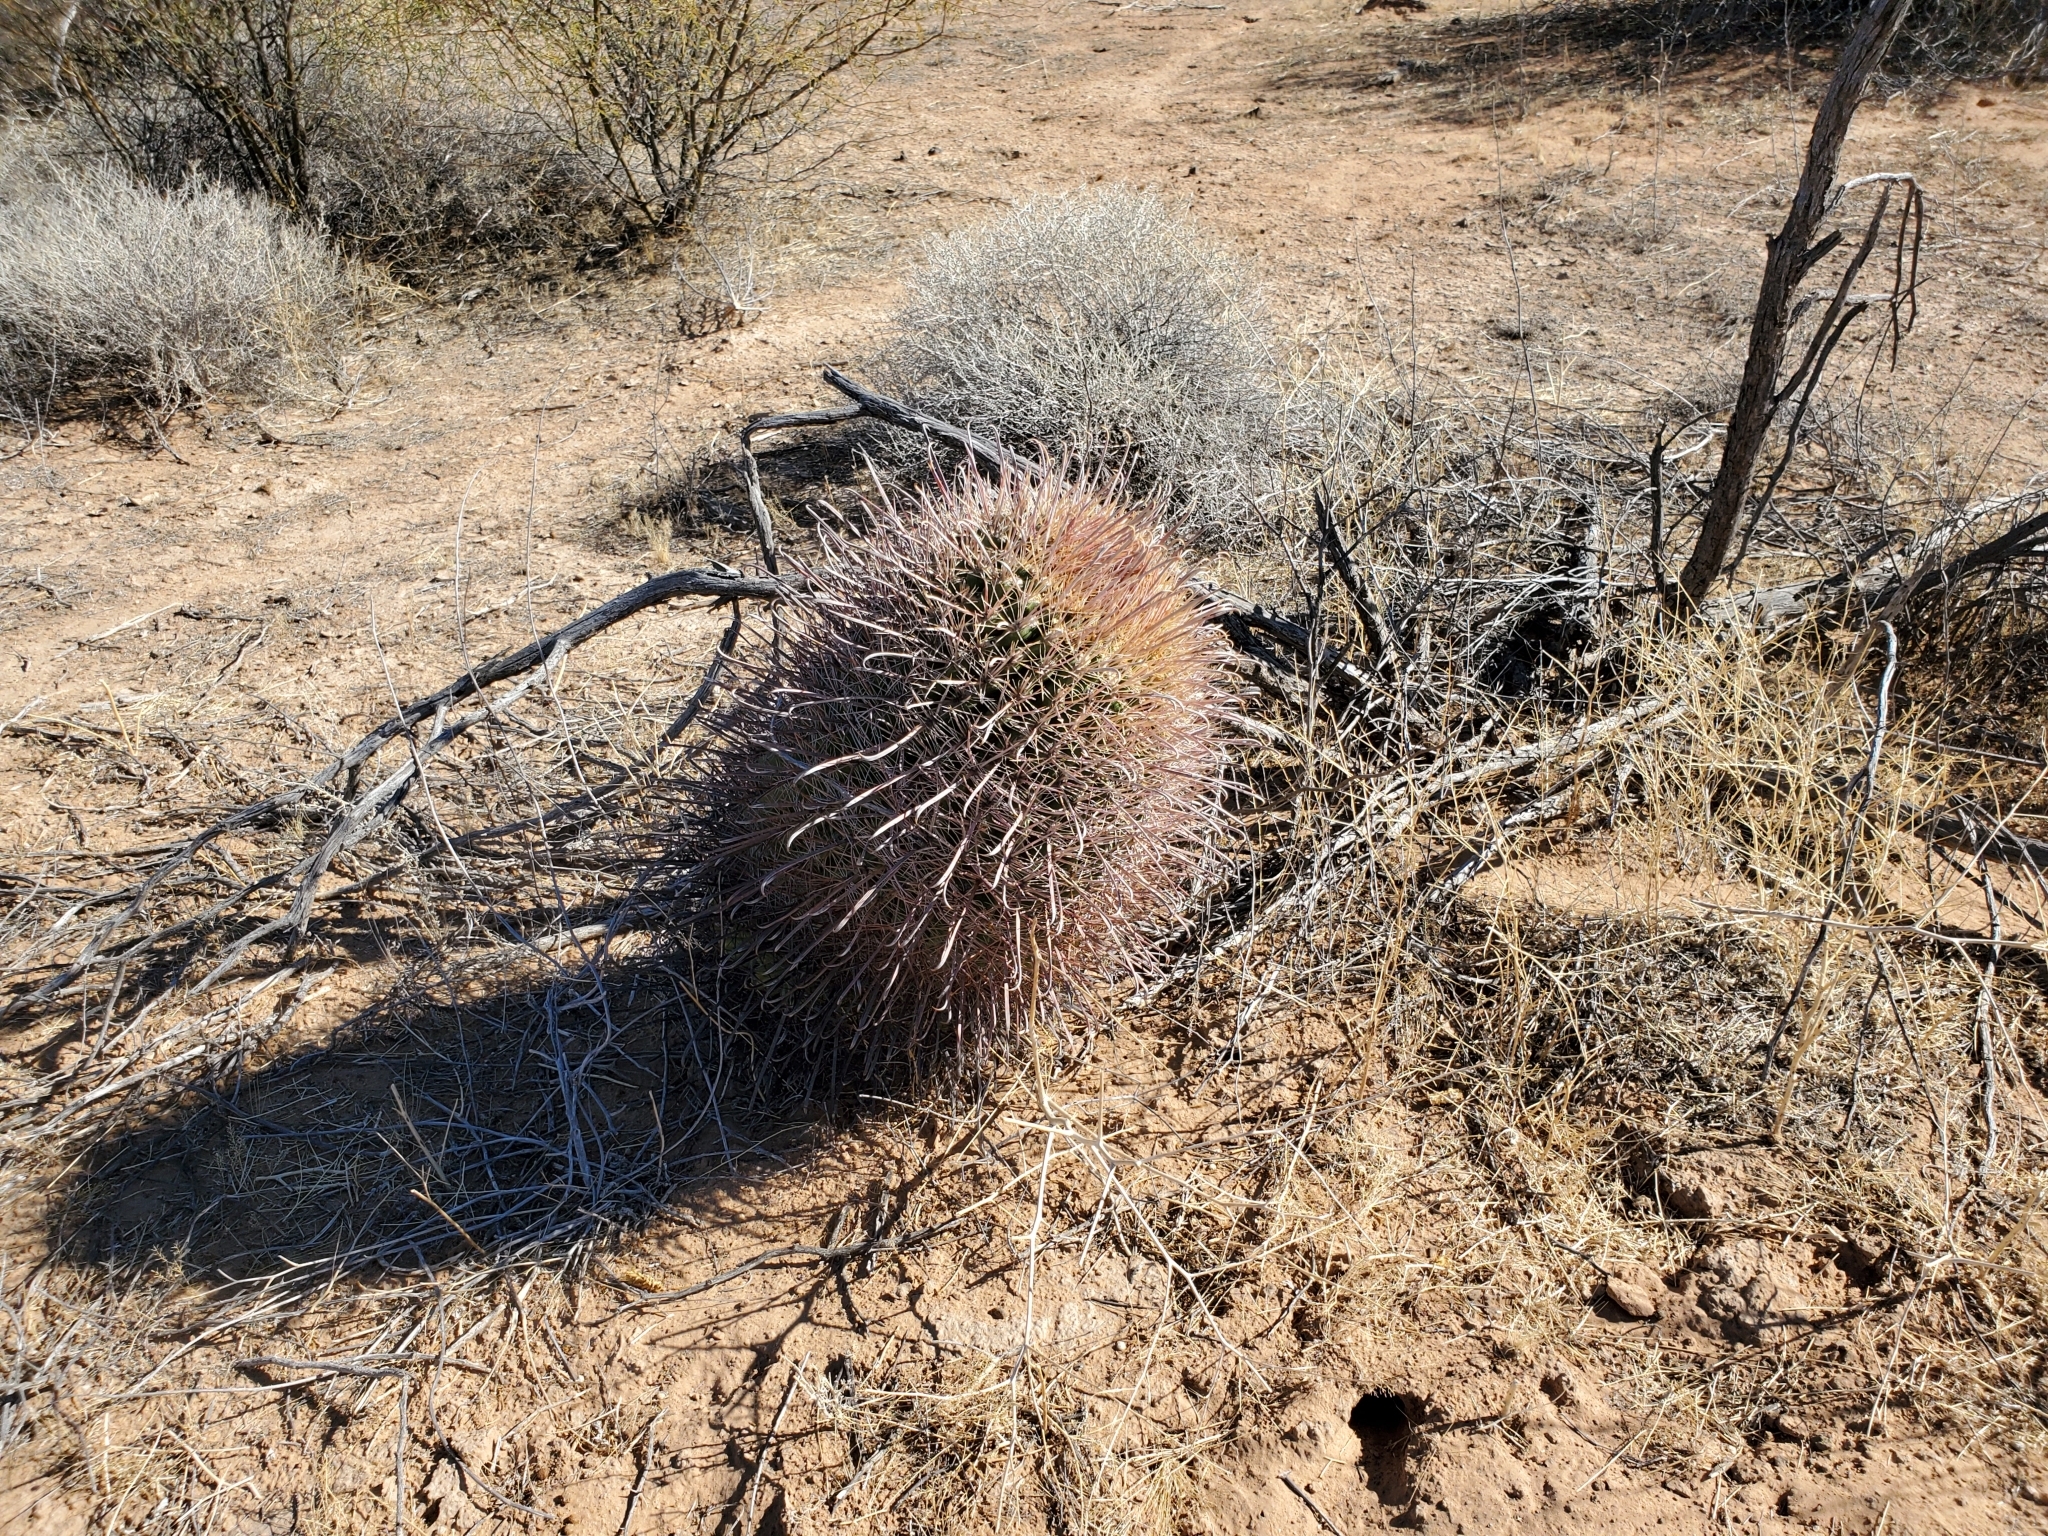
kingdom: Plantae
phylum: Tracheophyta
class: Magnoliopsida
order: Caryophyllales
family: Cactaceae
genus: Ferocactus
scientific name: Ferocactus cylindraceus
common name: California barrel cactus
